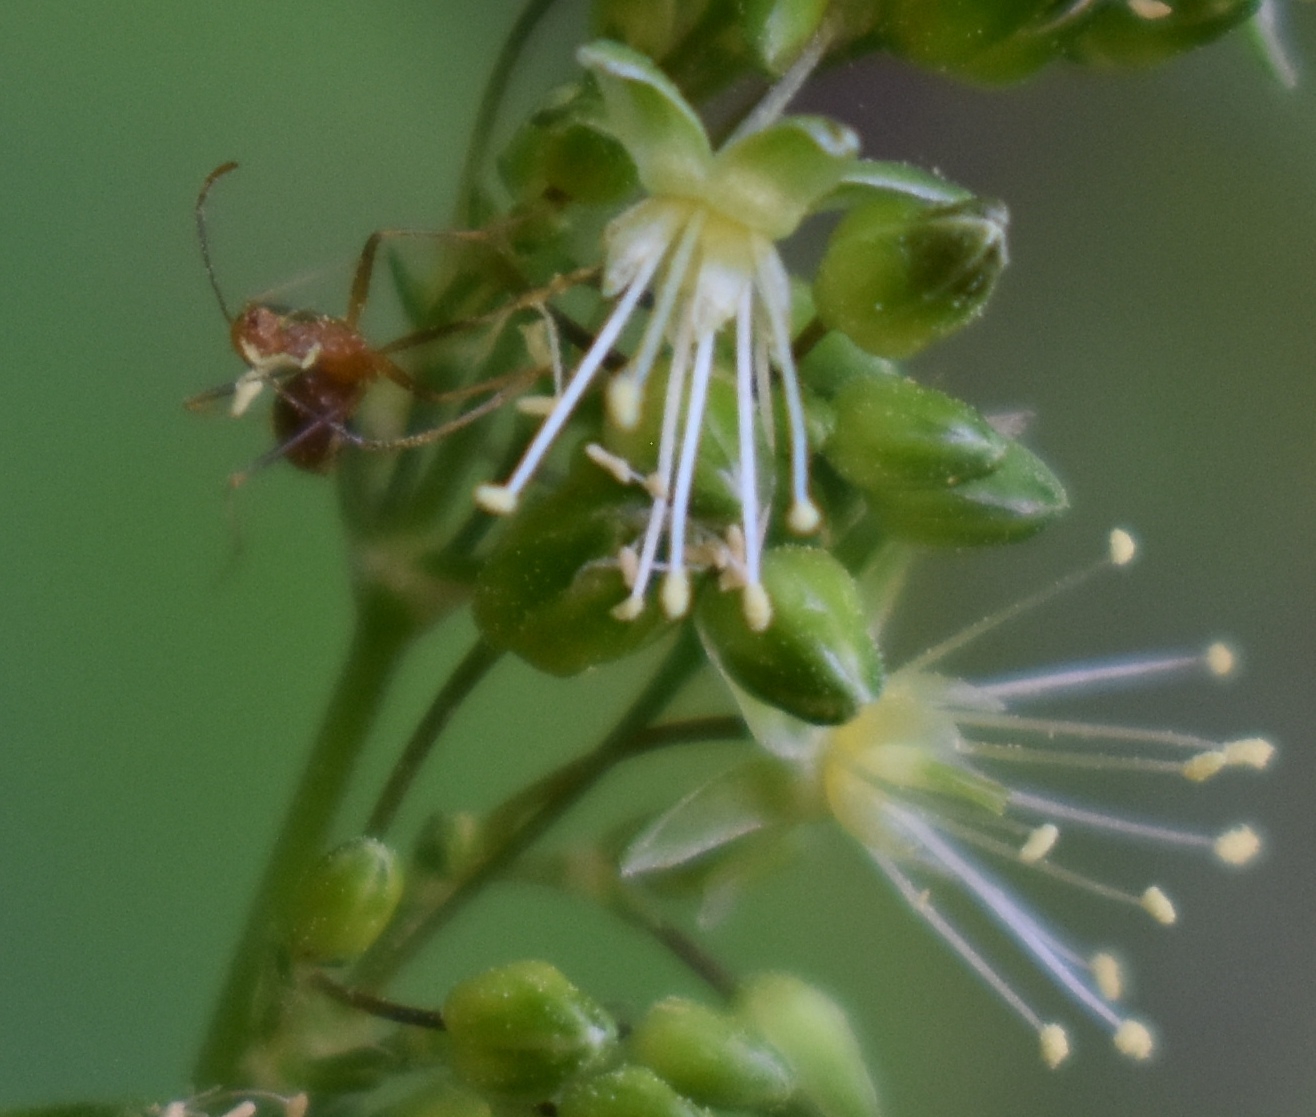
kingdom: Animalia
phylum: Arthropoda
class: Insecta
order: Hymenoptera
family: Formicidae
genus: Anoplolepis
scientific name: Anoplolepis gracilipes
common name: Ant
